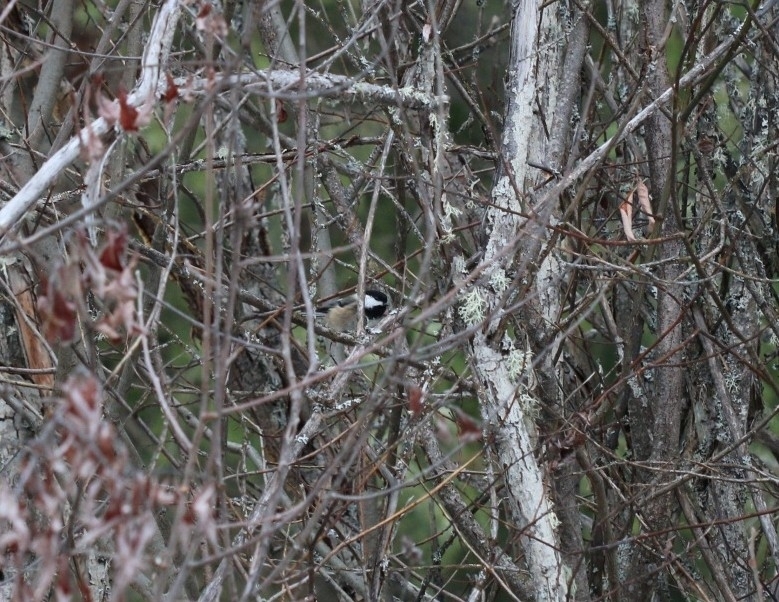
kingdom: Animalia
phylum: Chordata
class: Aves
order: Passeriformes
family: Paridae
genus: Poecile
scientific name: Poecile atricapillus
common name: Black-capped chickadee
